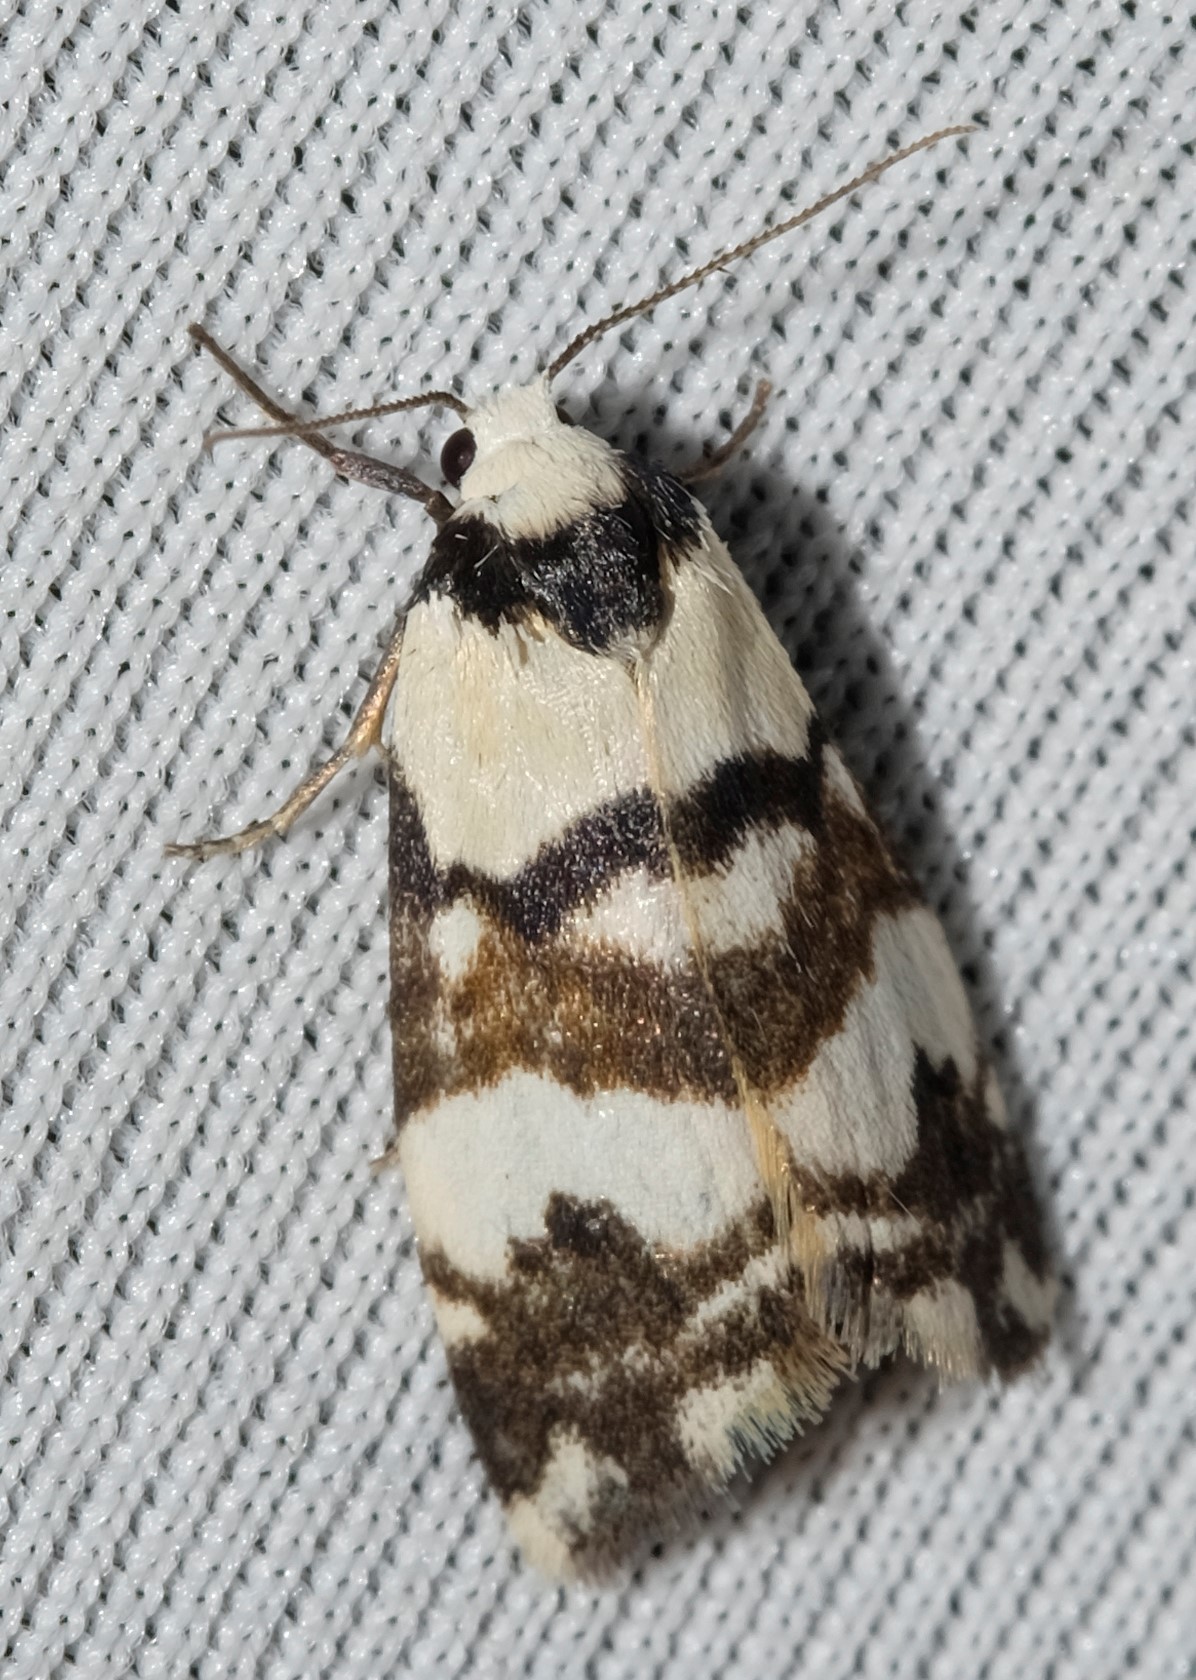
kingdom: Animalia
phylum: Arthropoda
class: Insecta
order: Lepidoptera
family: Erebidae
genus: Thallarcha
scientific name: Thallarcha albicollis
